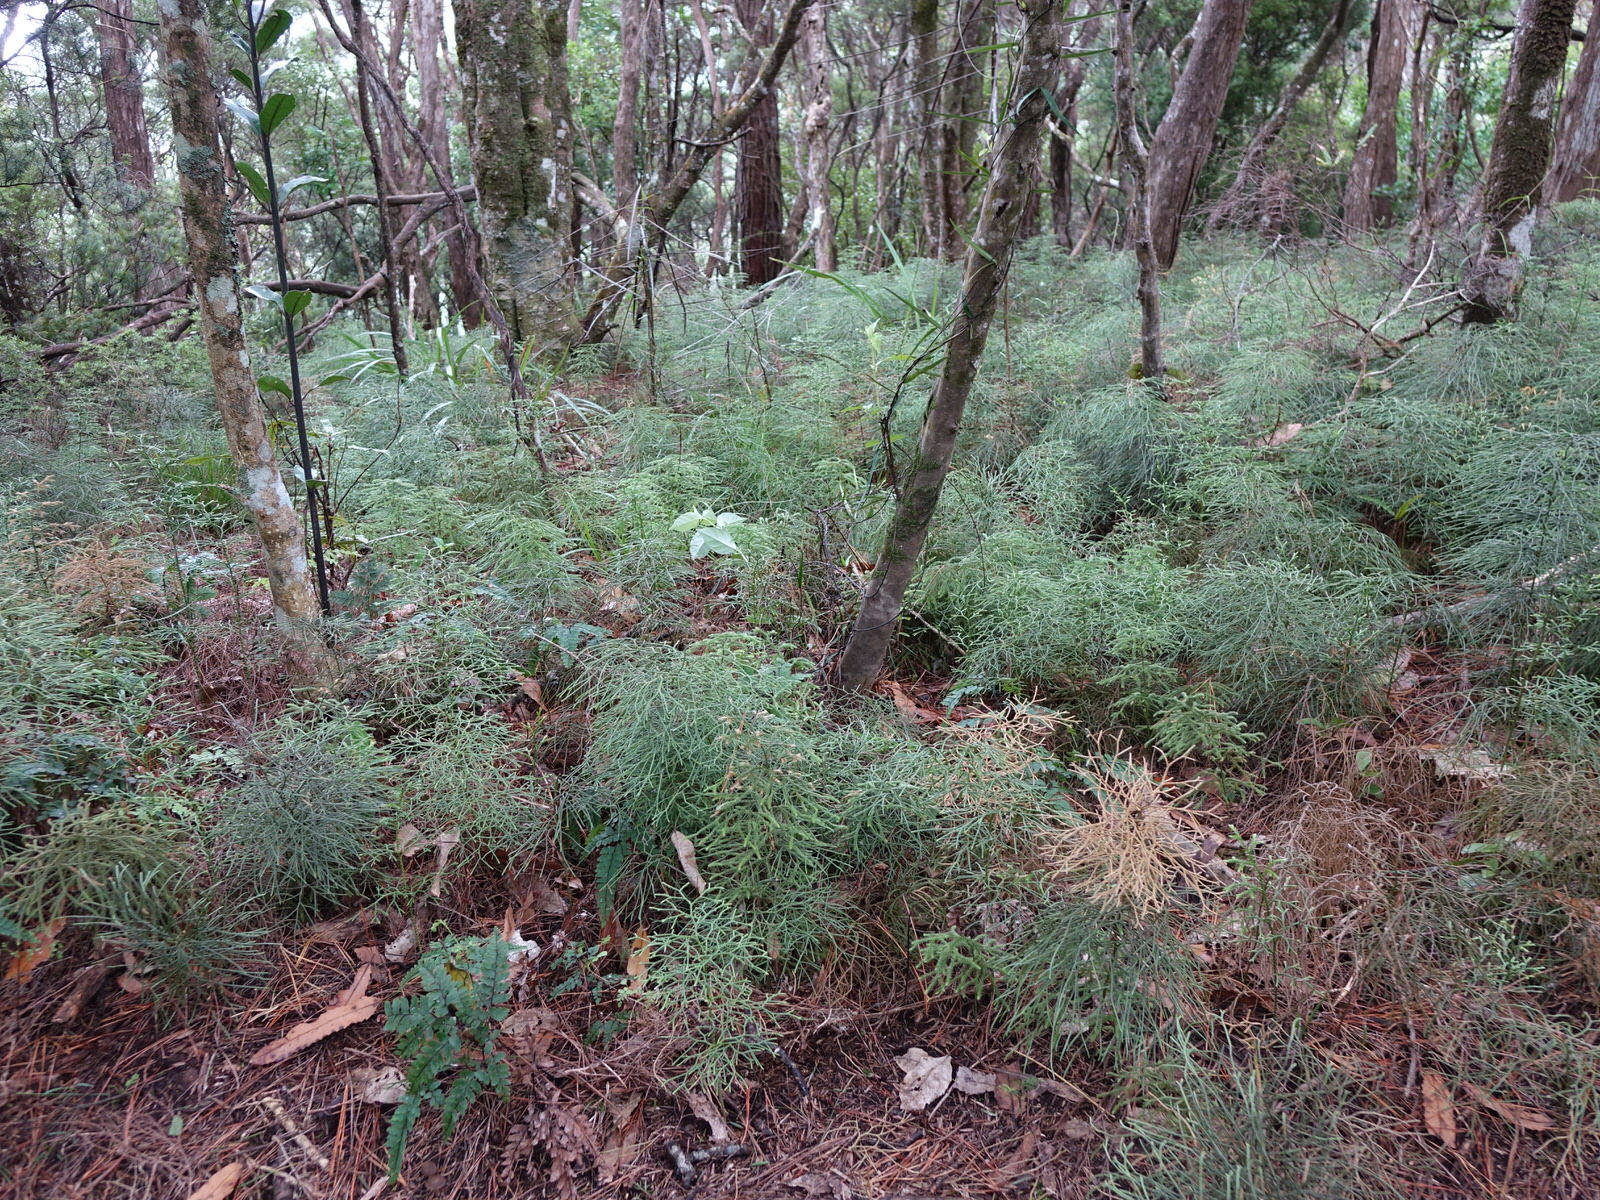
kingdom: Plantae
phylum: Tracheophyta
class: Lycopodiopsida
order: Lycopodiales
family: Lycopodiaceae
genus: Pseudolycopodium
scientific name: Pseudolycopodium densum
